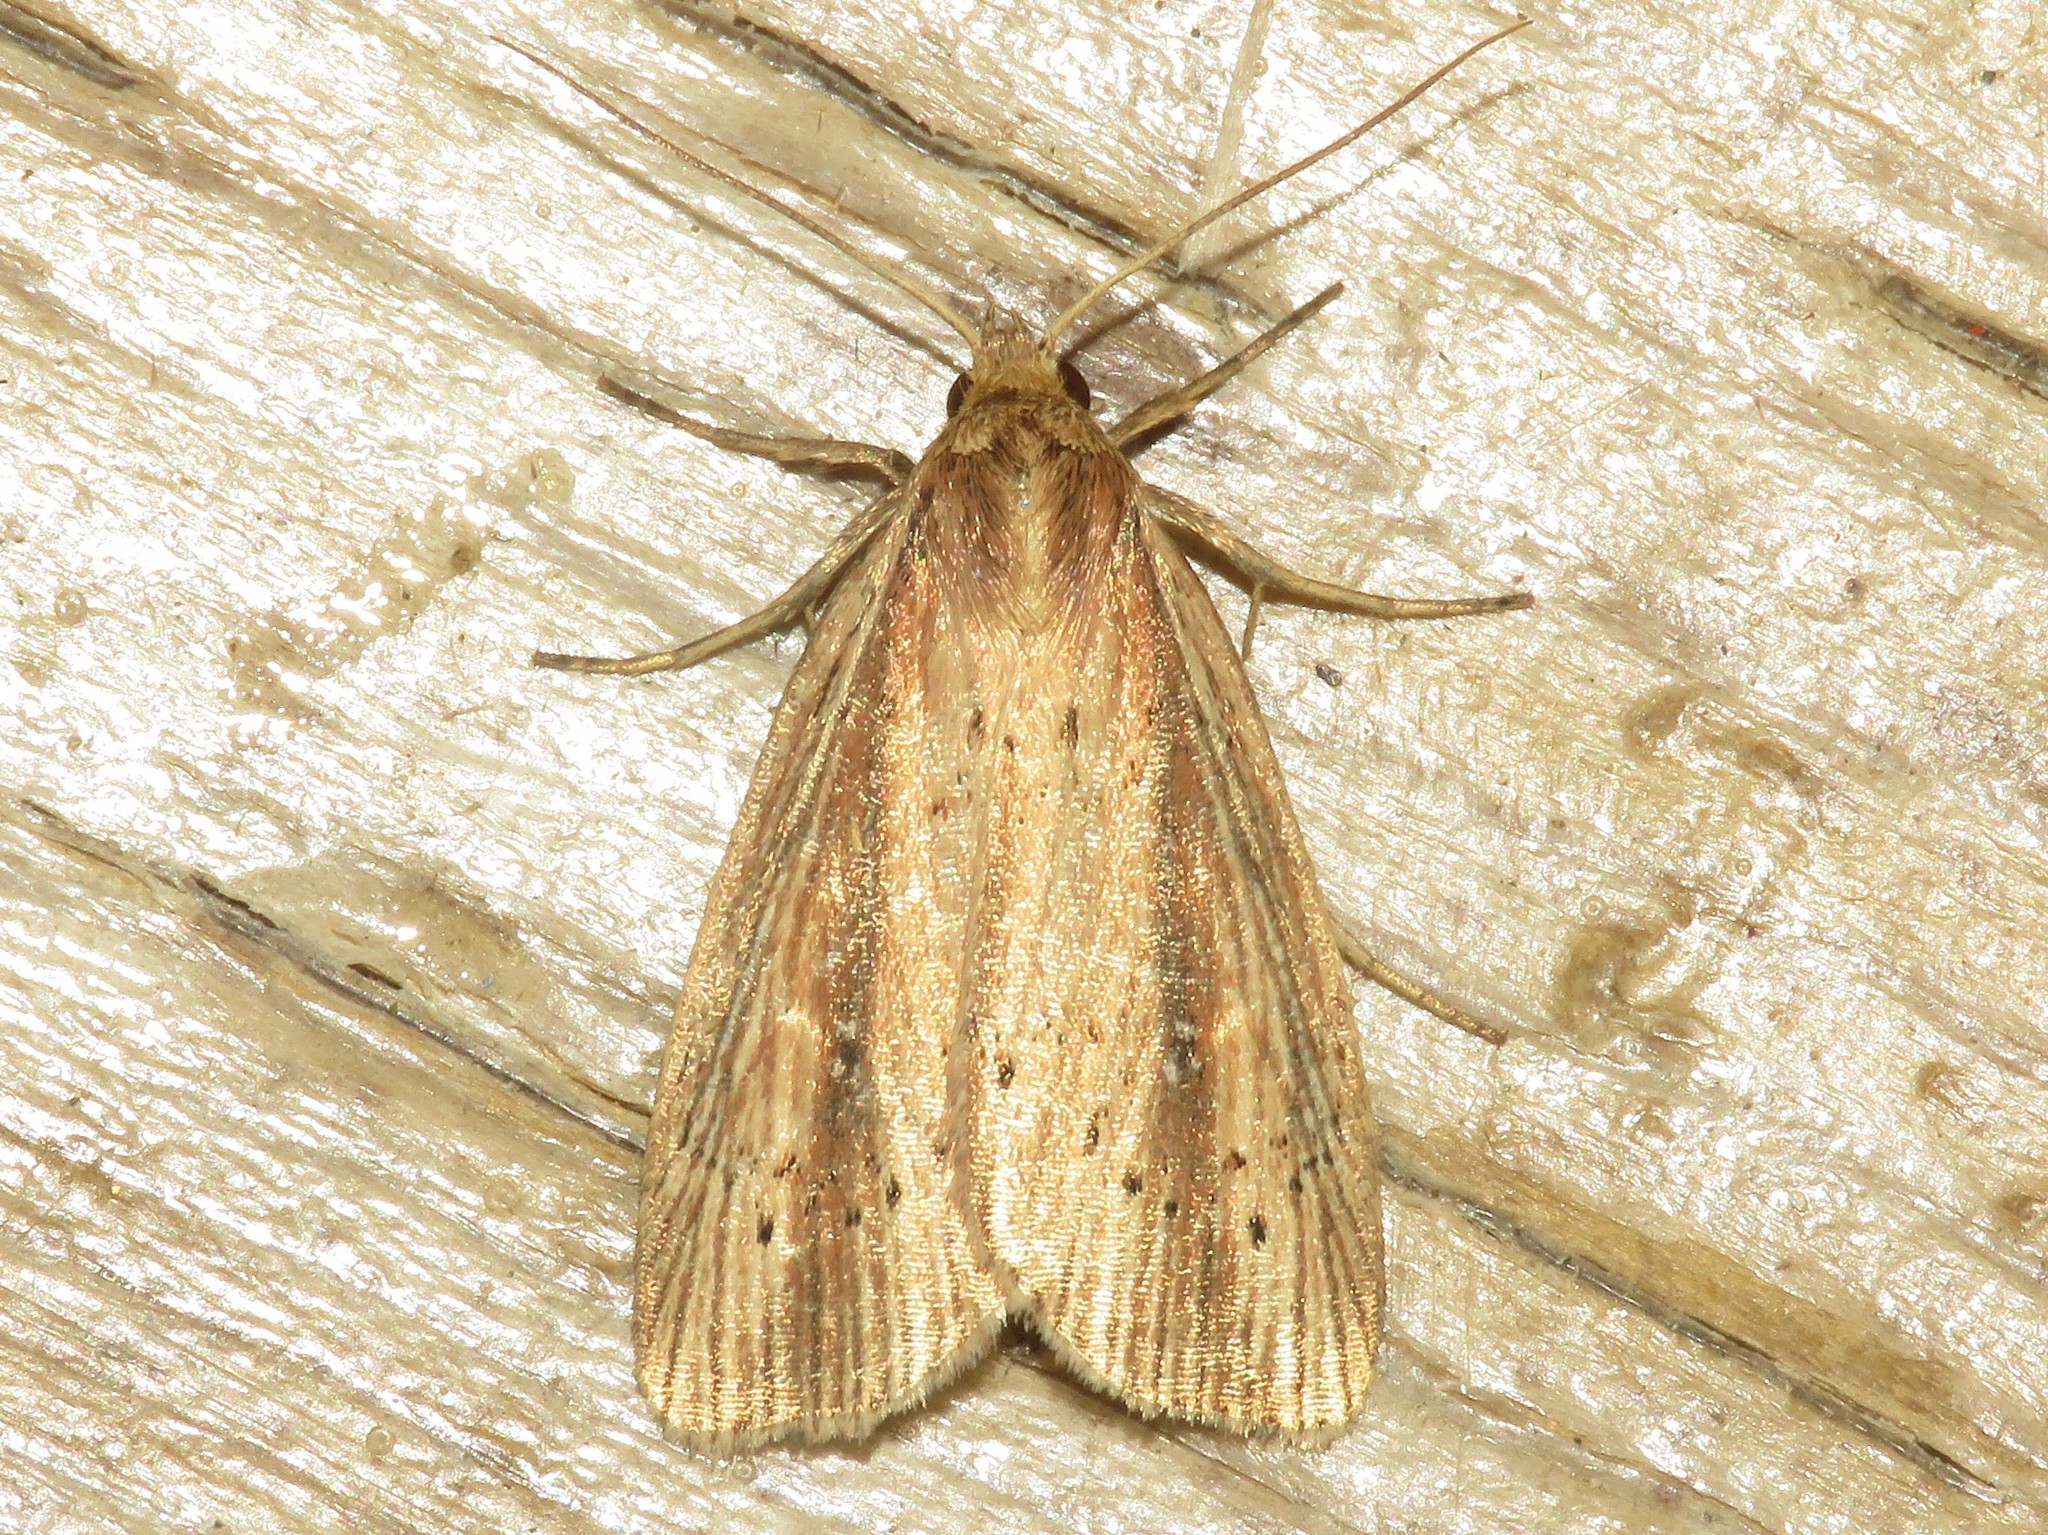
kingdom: Animalia
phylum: Arthropoda
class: Insecta
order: Lepidoptera
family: Noctuidae
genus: Photedes
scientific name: Photedes defecta
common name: Narrow-winged borer moth
